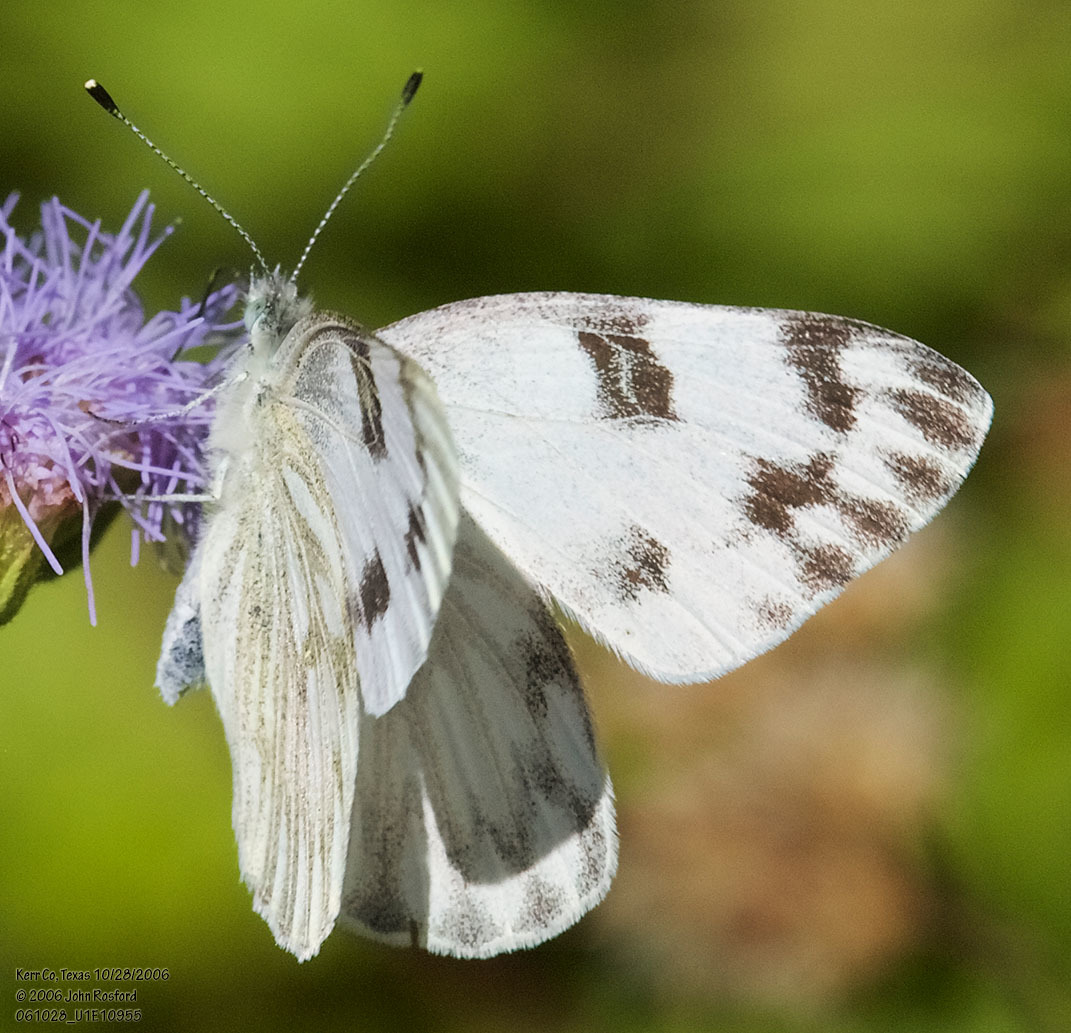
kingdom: Animalia
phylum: Arthropoda
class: Insecta
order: Lepidoptera
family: Pieridae
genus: Pontia
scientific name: Pontia protodice
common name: Checkered white
